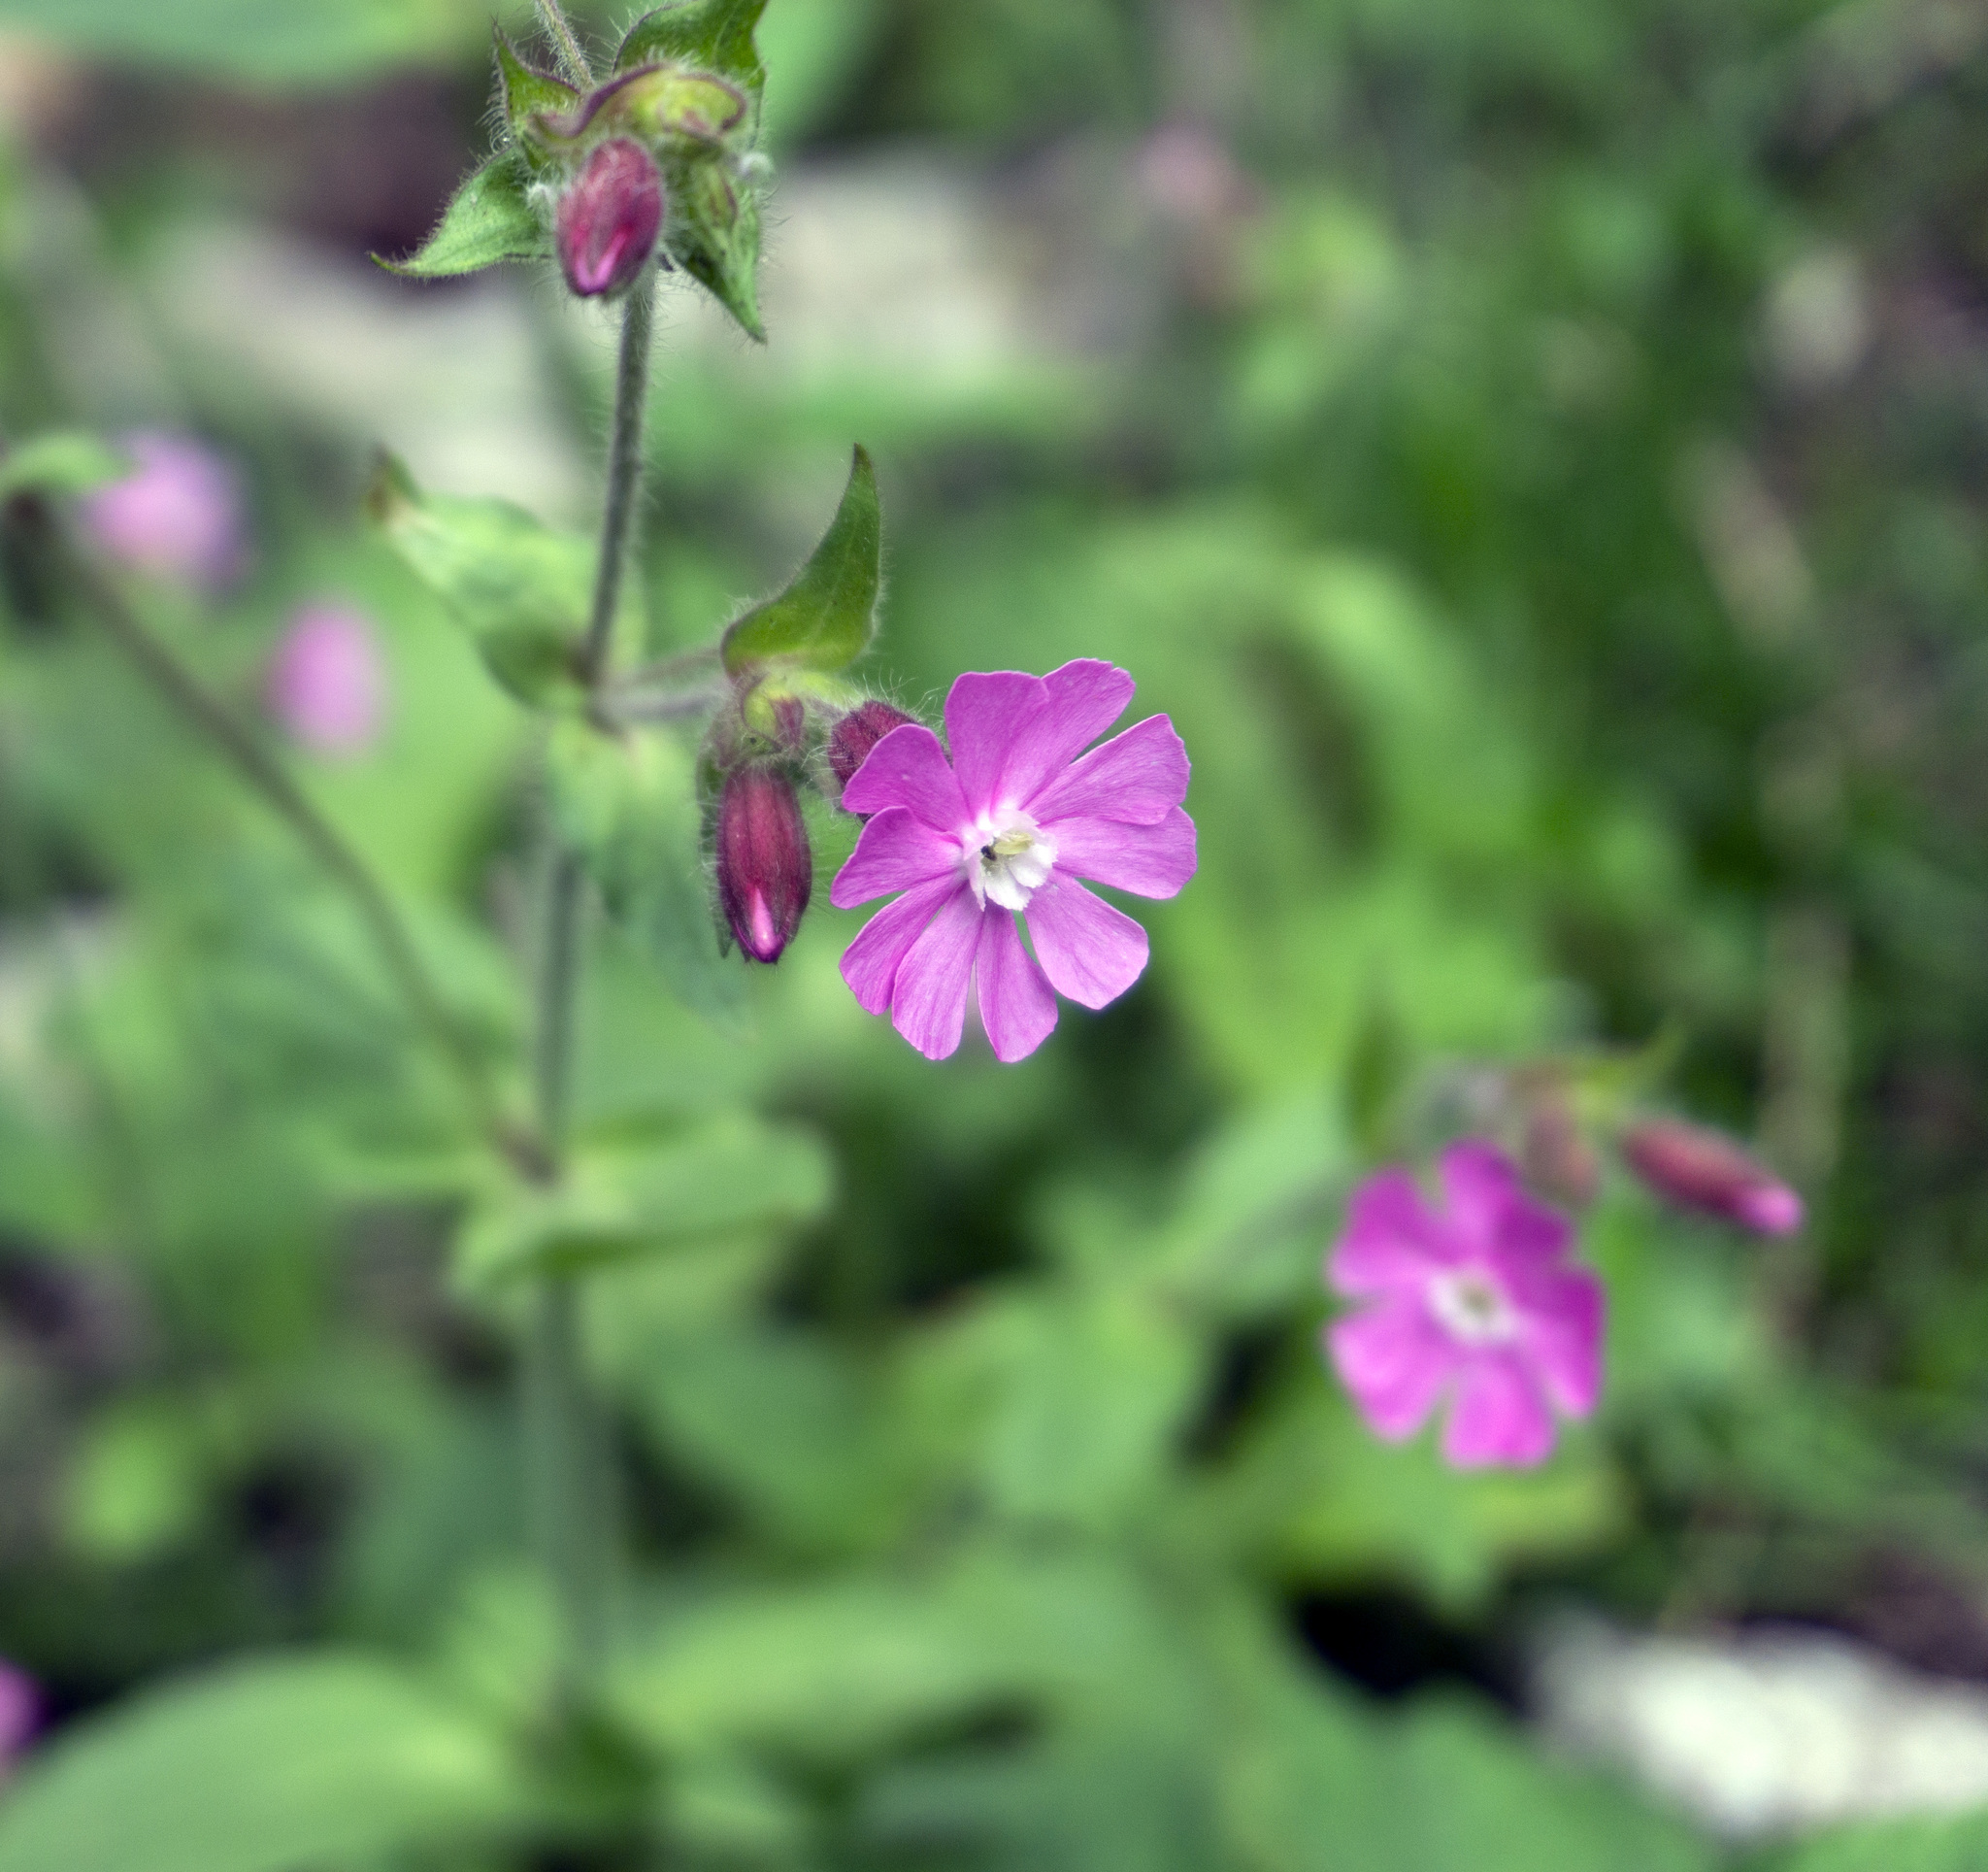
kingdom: Plantae
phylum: Tracheophyta
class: Magnoliopsida
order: Caryophyllales
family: Caryophyllaceae
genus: Silene
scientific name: Silene dioica
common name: Red campion
